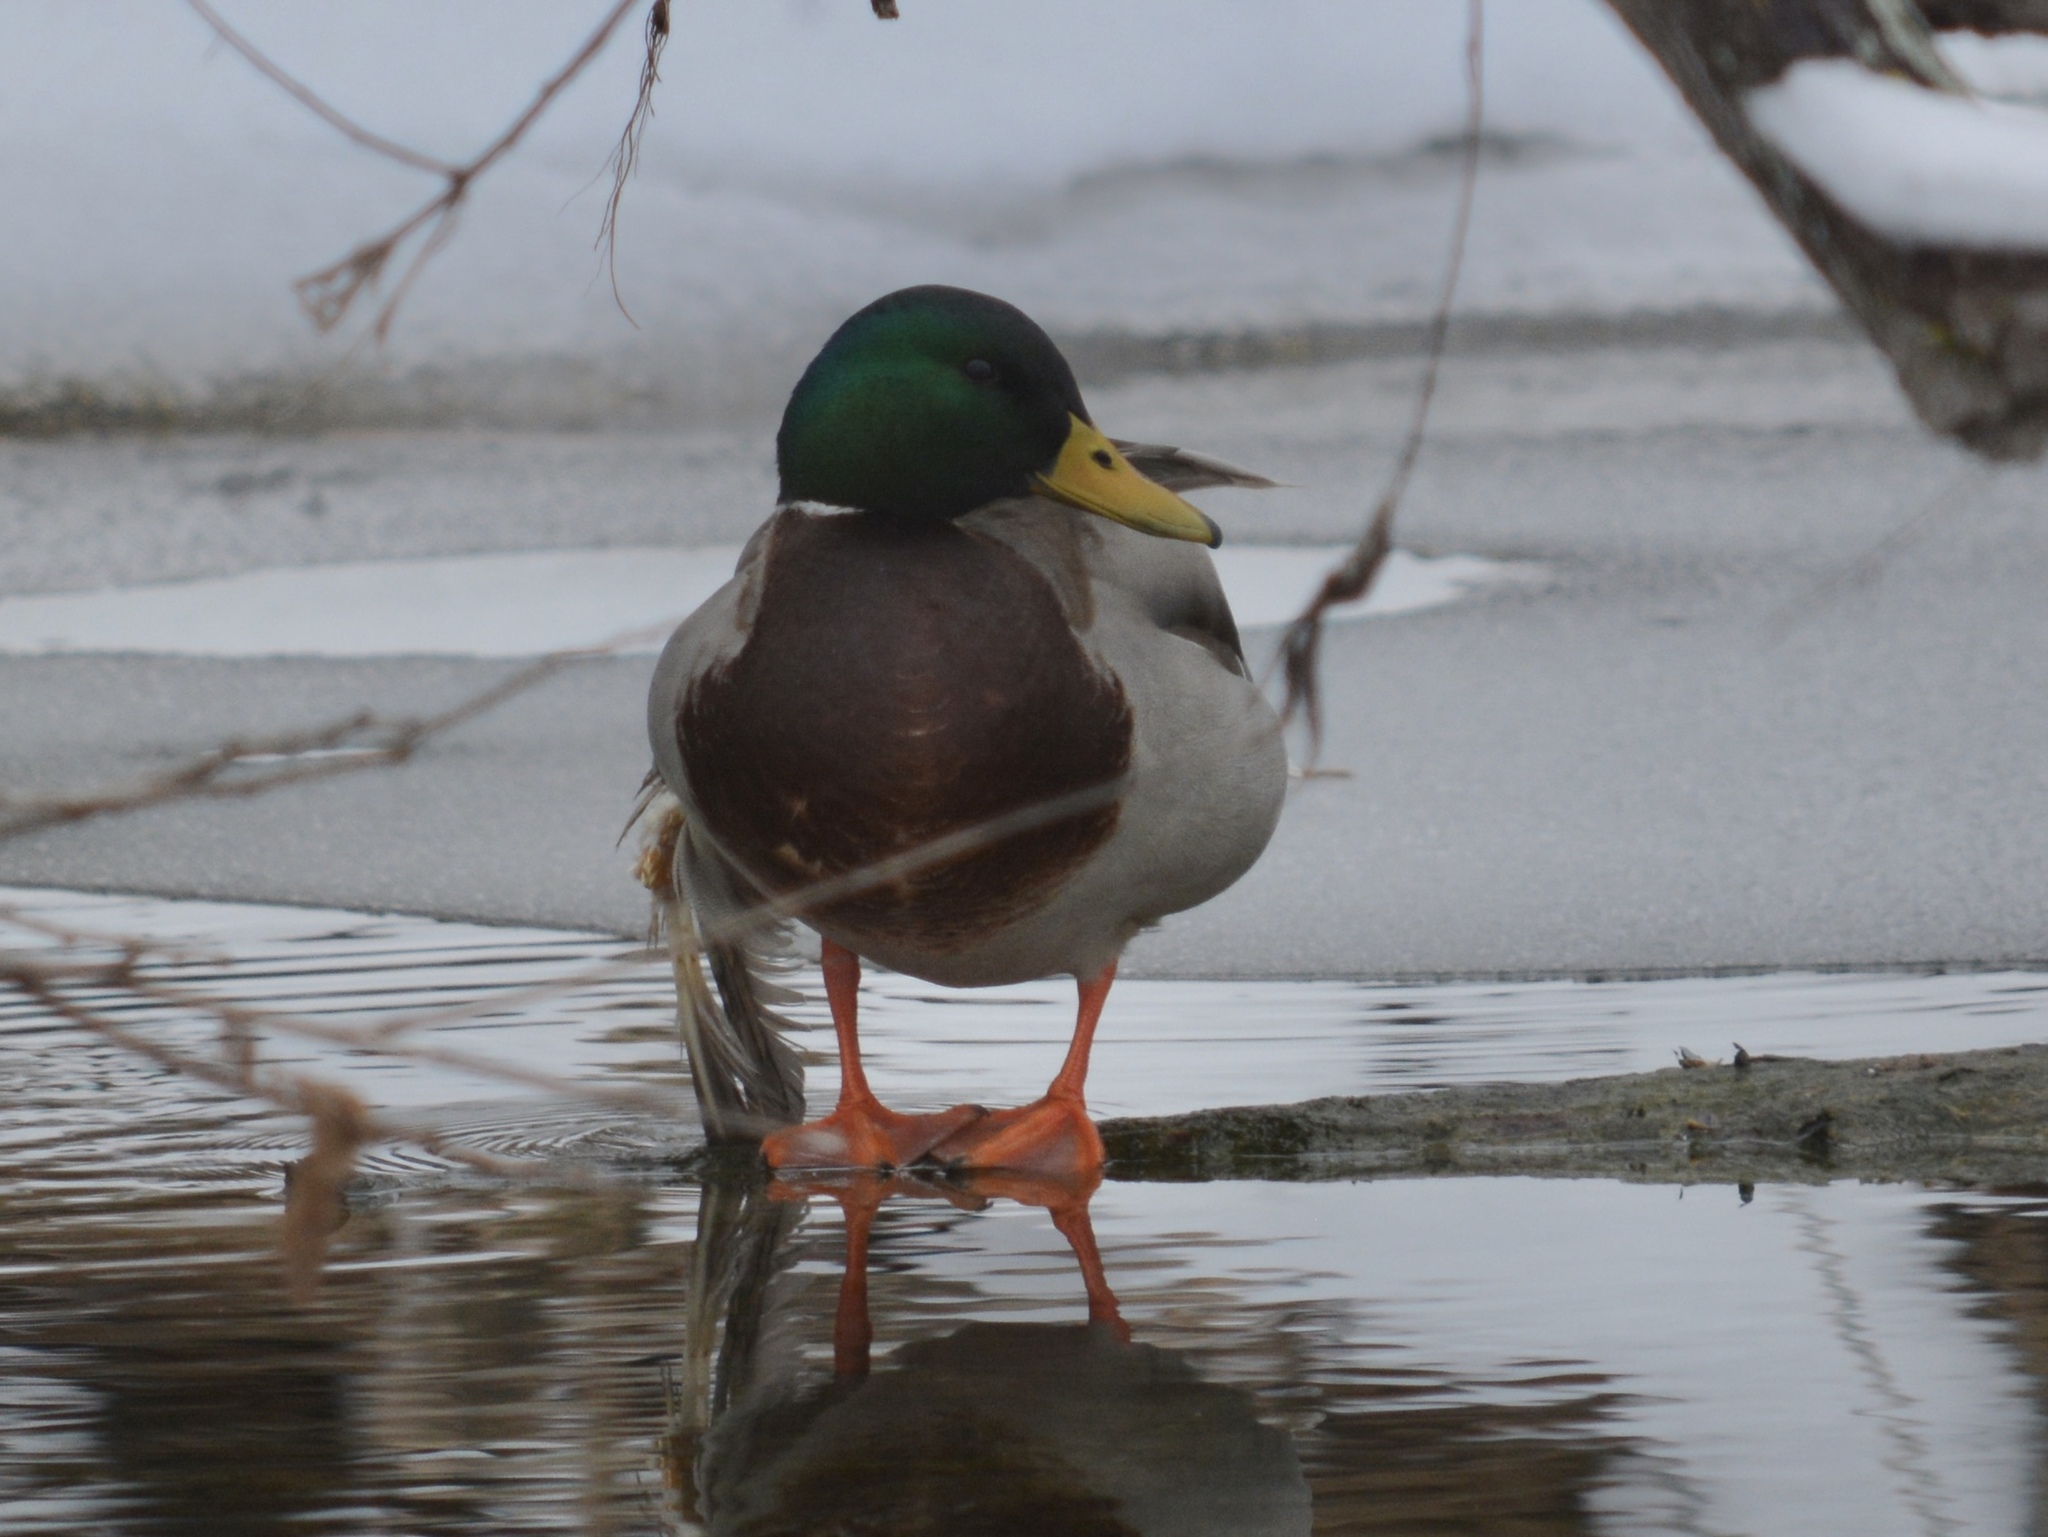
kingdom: Animalia
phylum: Chordata
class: Aves
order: Anseriformes
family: Anatidae
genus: Anas
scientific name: Anas platyrhynchos
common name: Mallard
